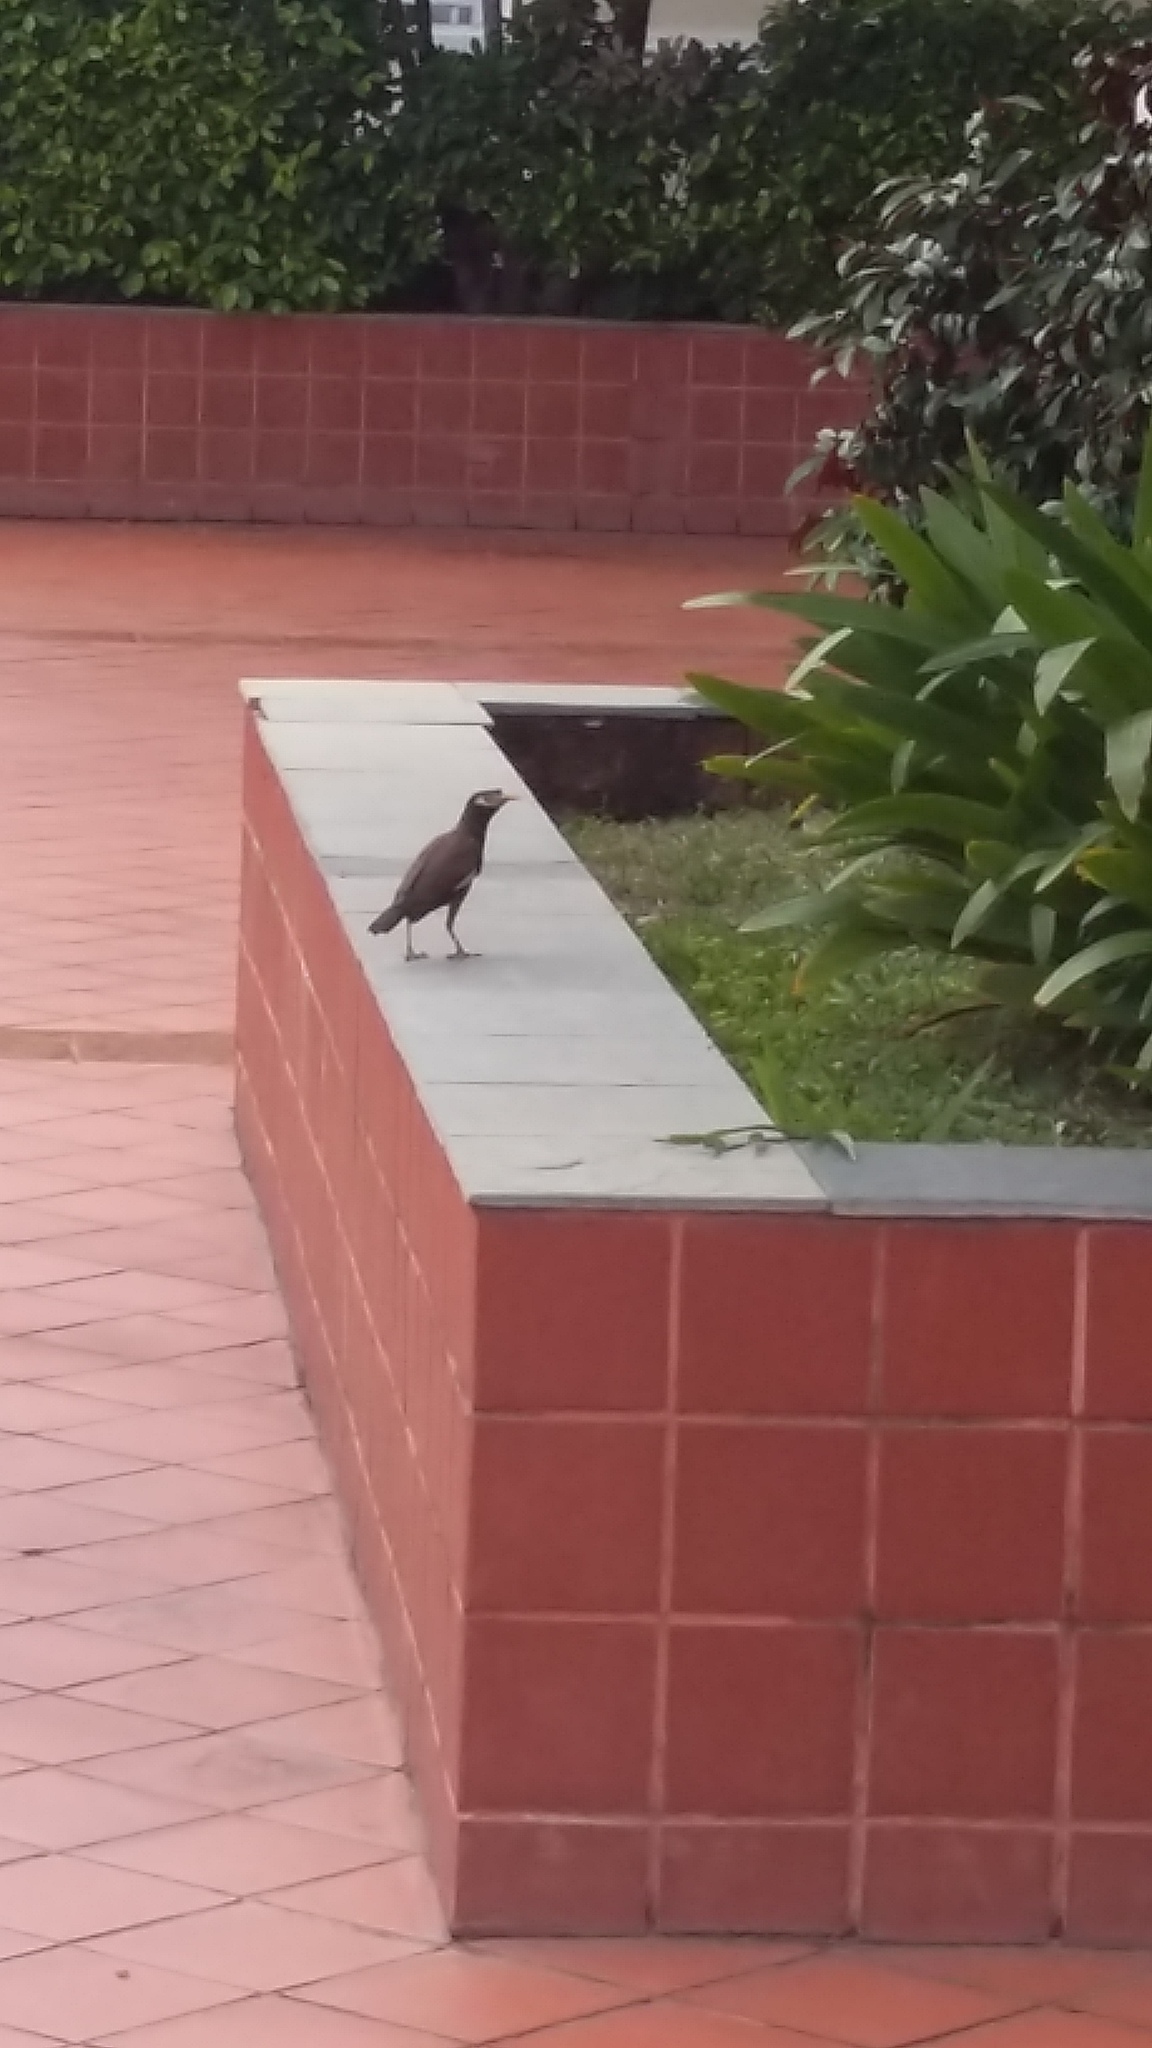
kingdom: Animalia
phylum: Chordata
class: Aves
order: Passeriformes
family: Sturnidae
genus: Acridotheres
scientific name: Acridotheres tristis
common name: Common myna
